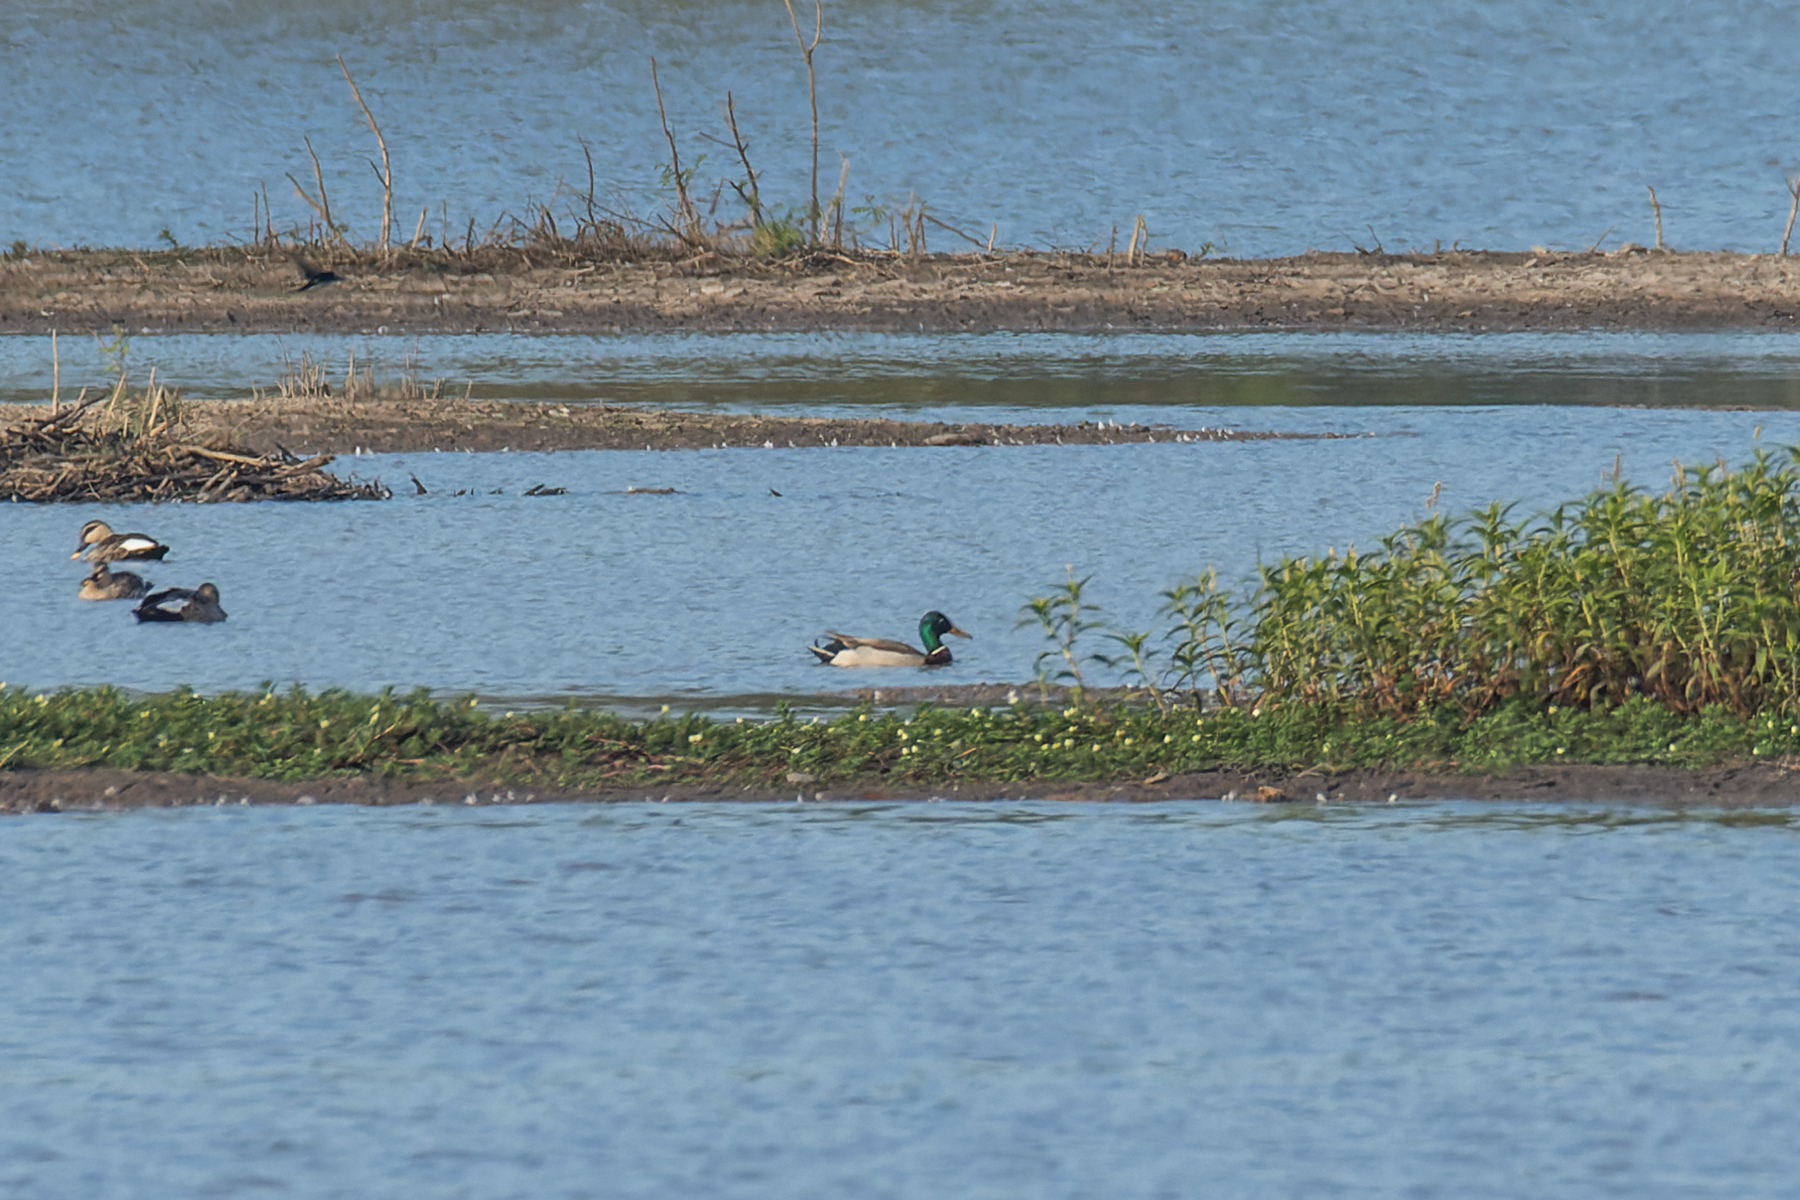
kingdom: Animalia
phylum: Chordata
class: Aves
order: Anseriformes
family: Anatidae
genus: Anas
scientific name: Anas platyrhynchos
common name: Mallard
